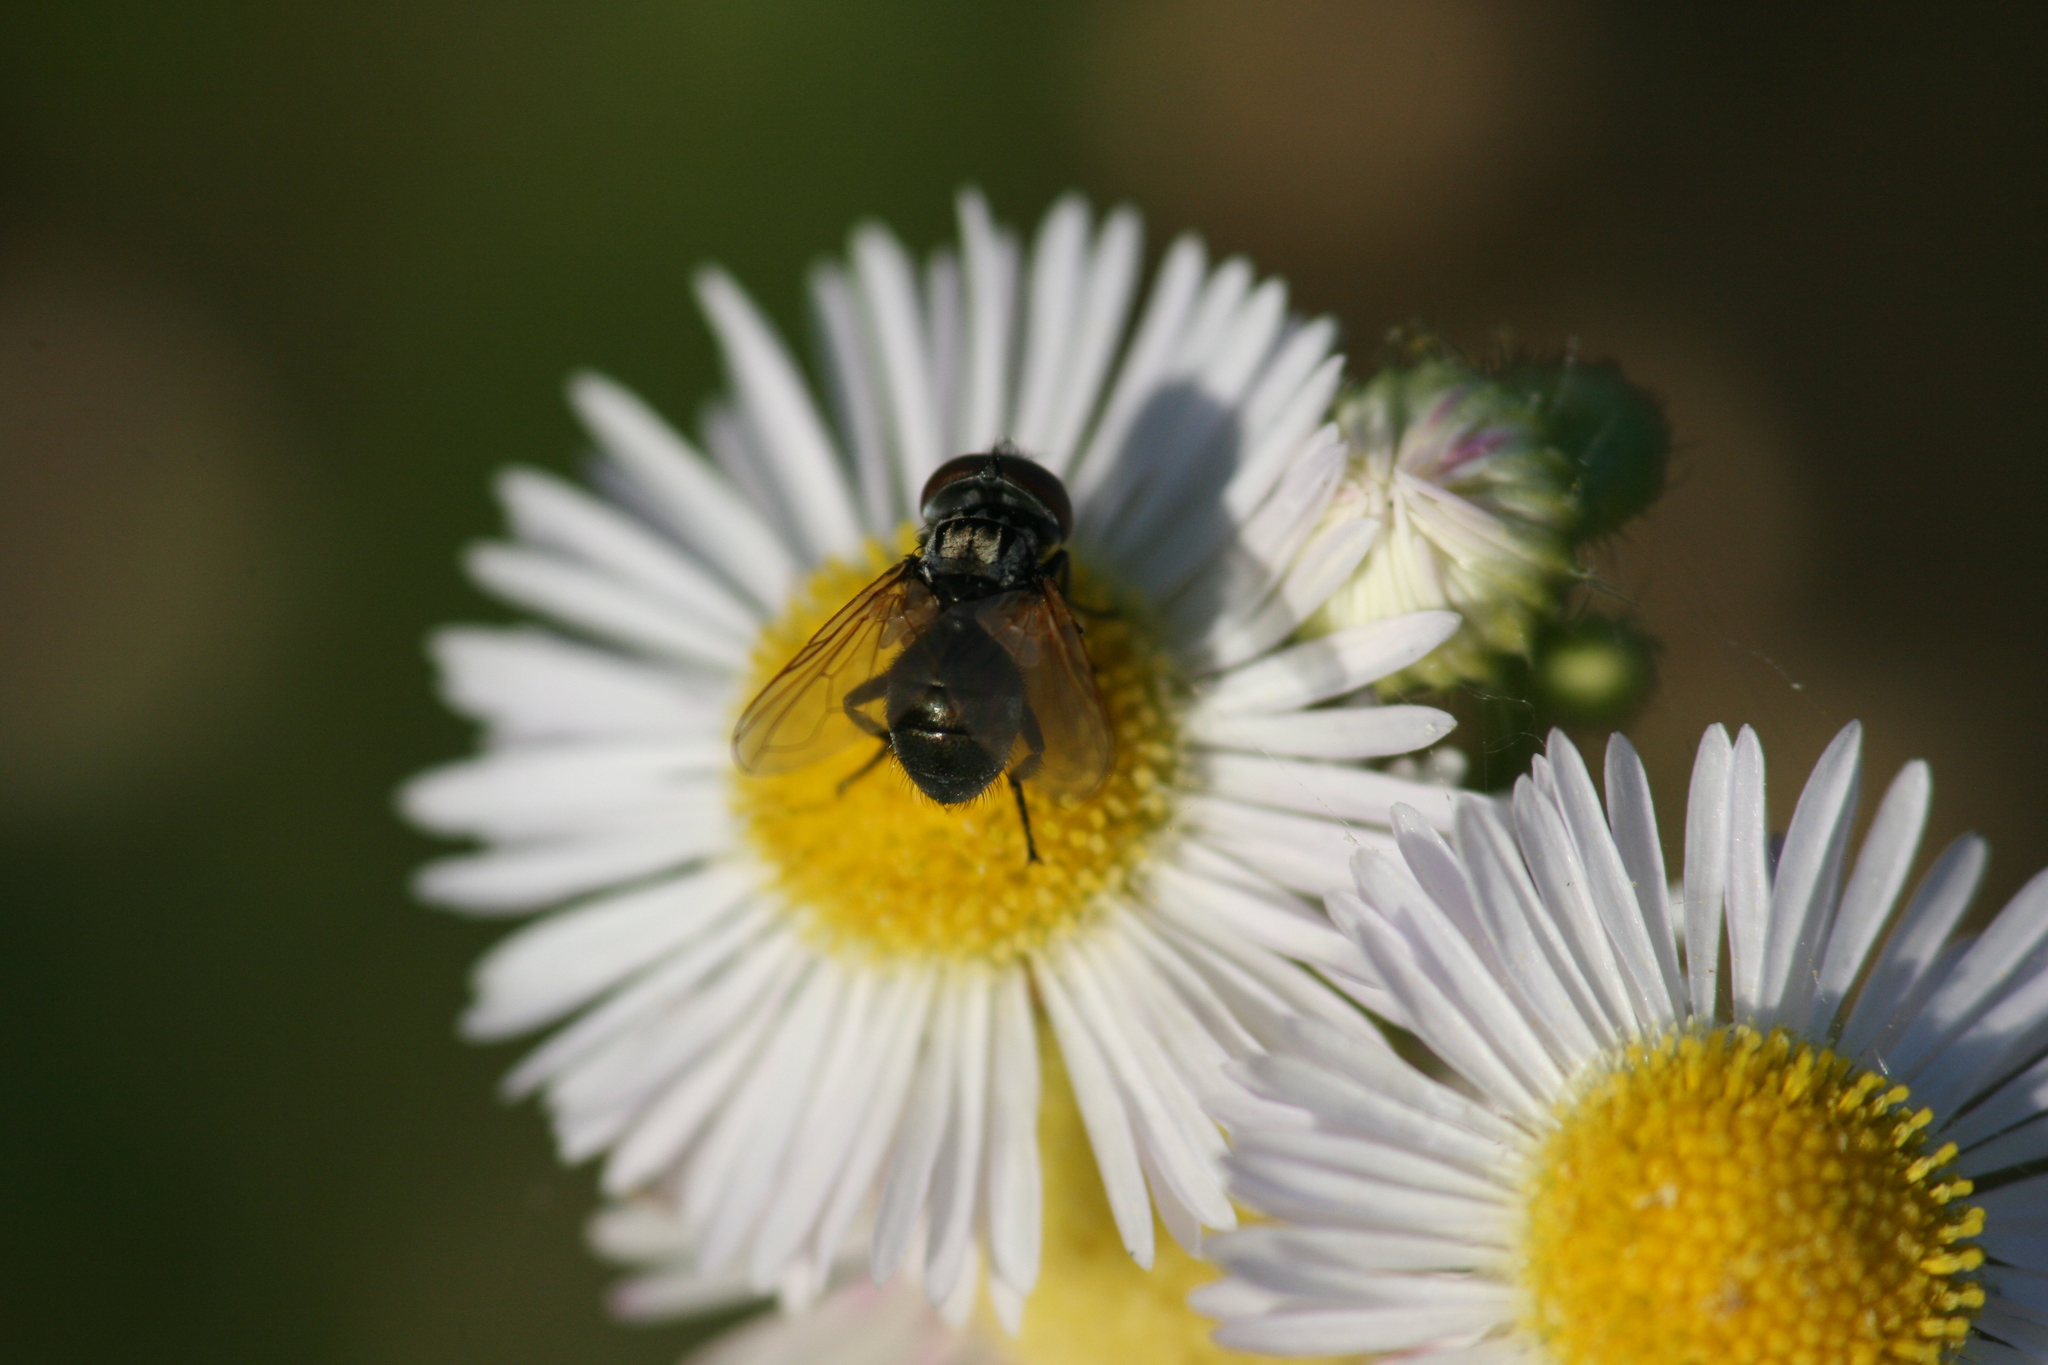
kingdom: Animalia
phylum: Arthropoda
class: Insecta
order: Diptera
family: Tachinidae
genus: Phasia
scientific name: Phasia obesa
